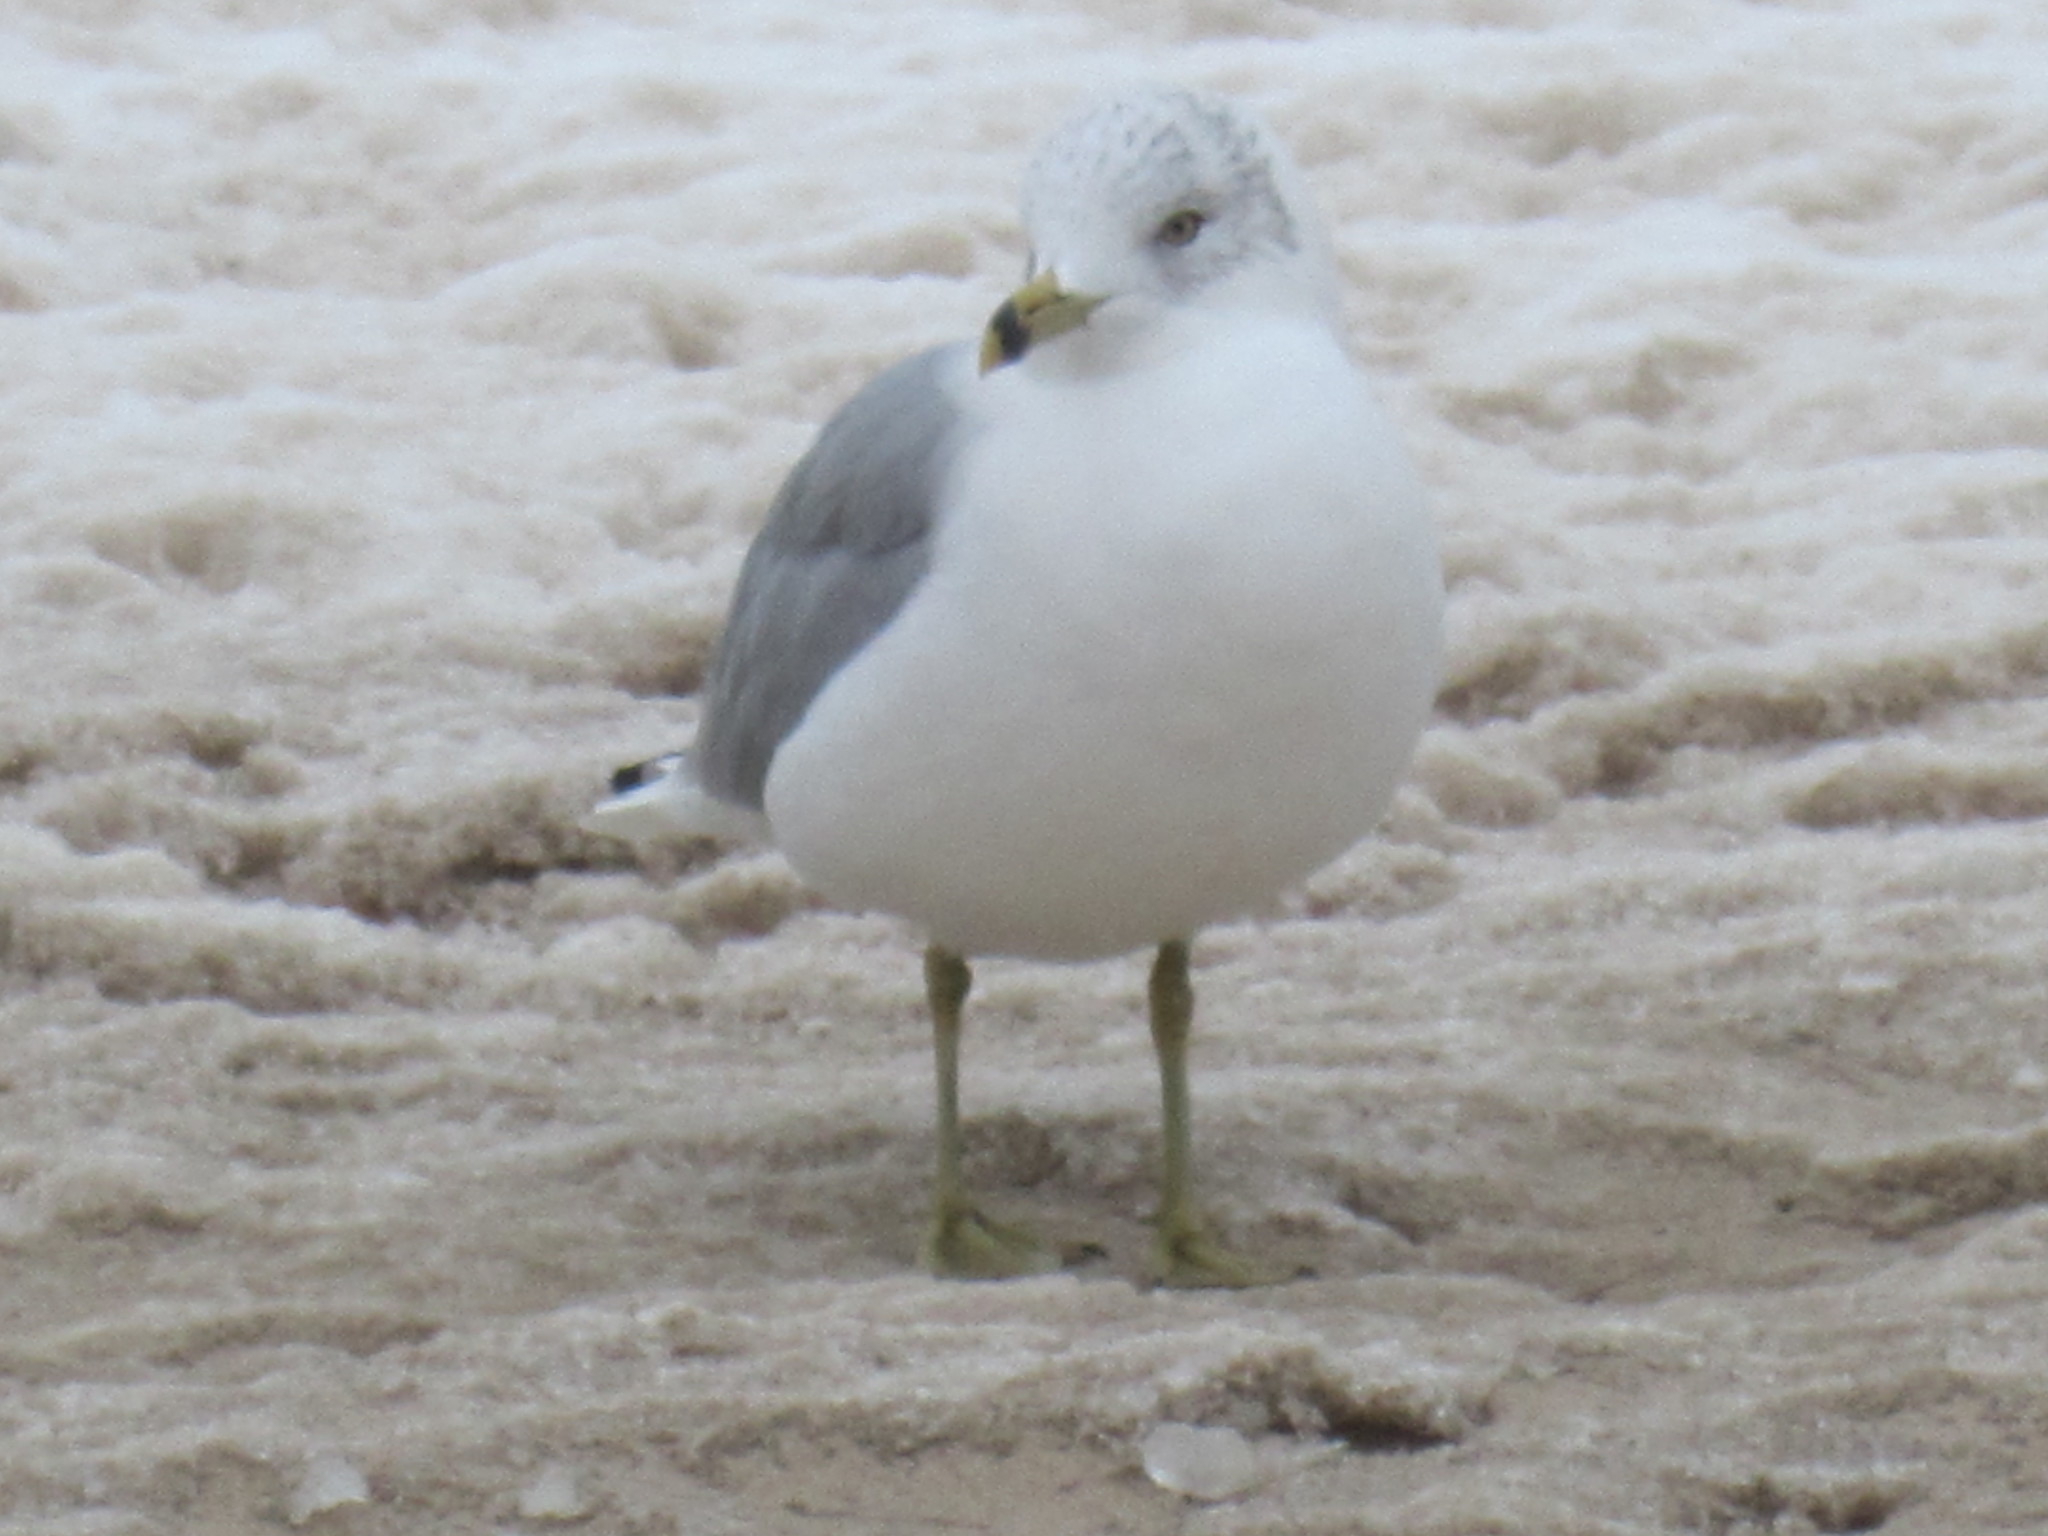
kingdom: Animalia
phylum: Chordata
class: Aves
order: Charadriiformes
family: Laridae
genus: Larus
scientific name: Larus delawarensis
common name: Ring-billed gull
